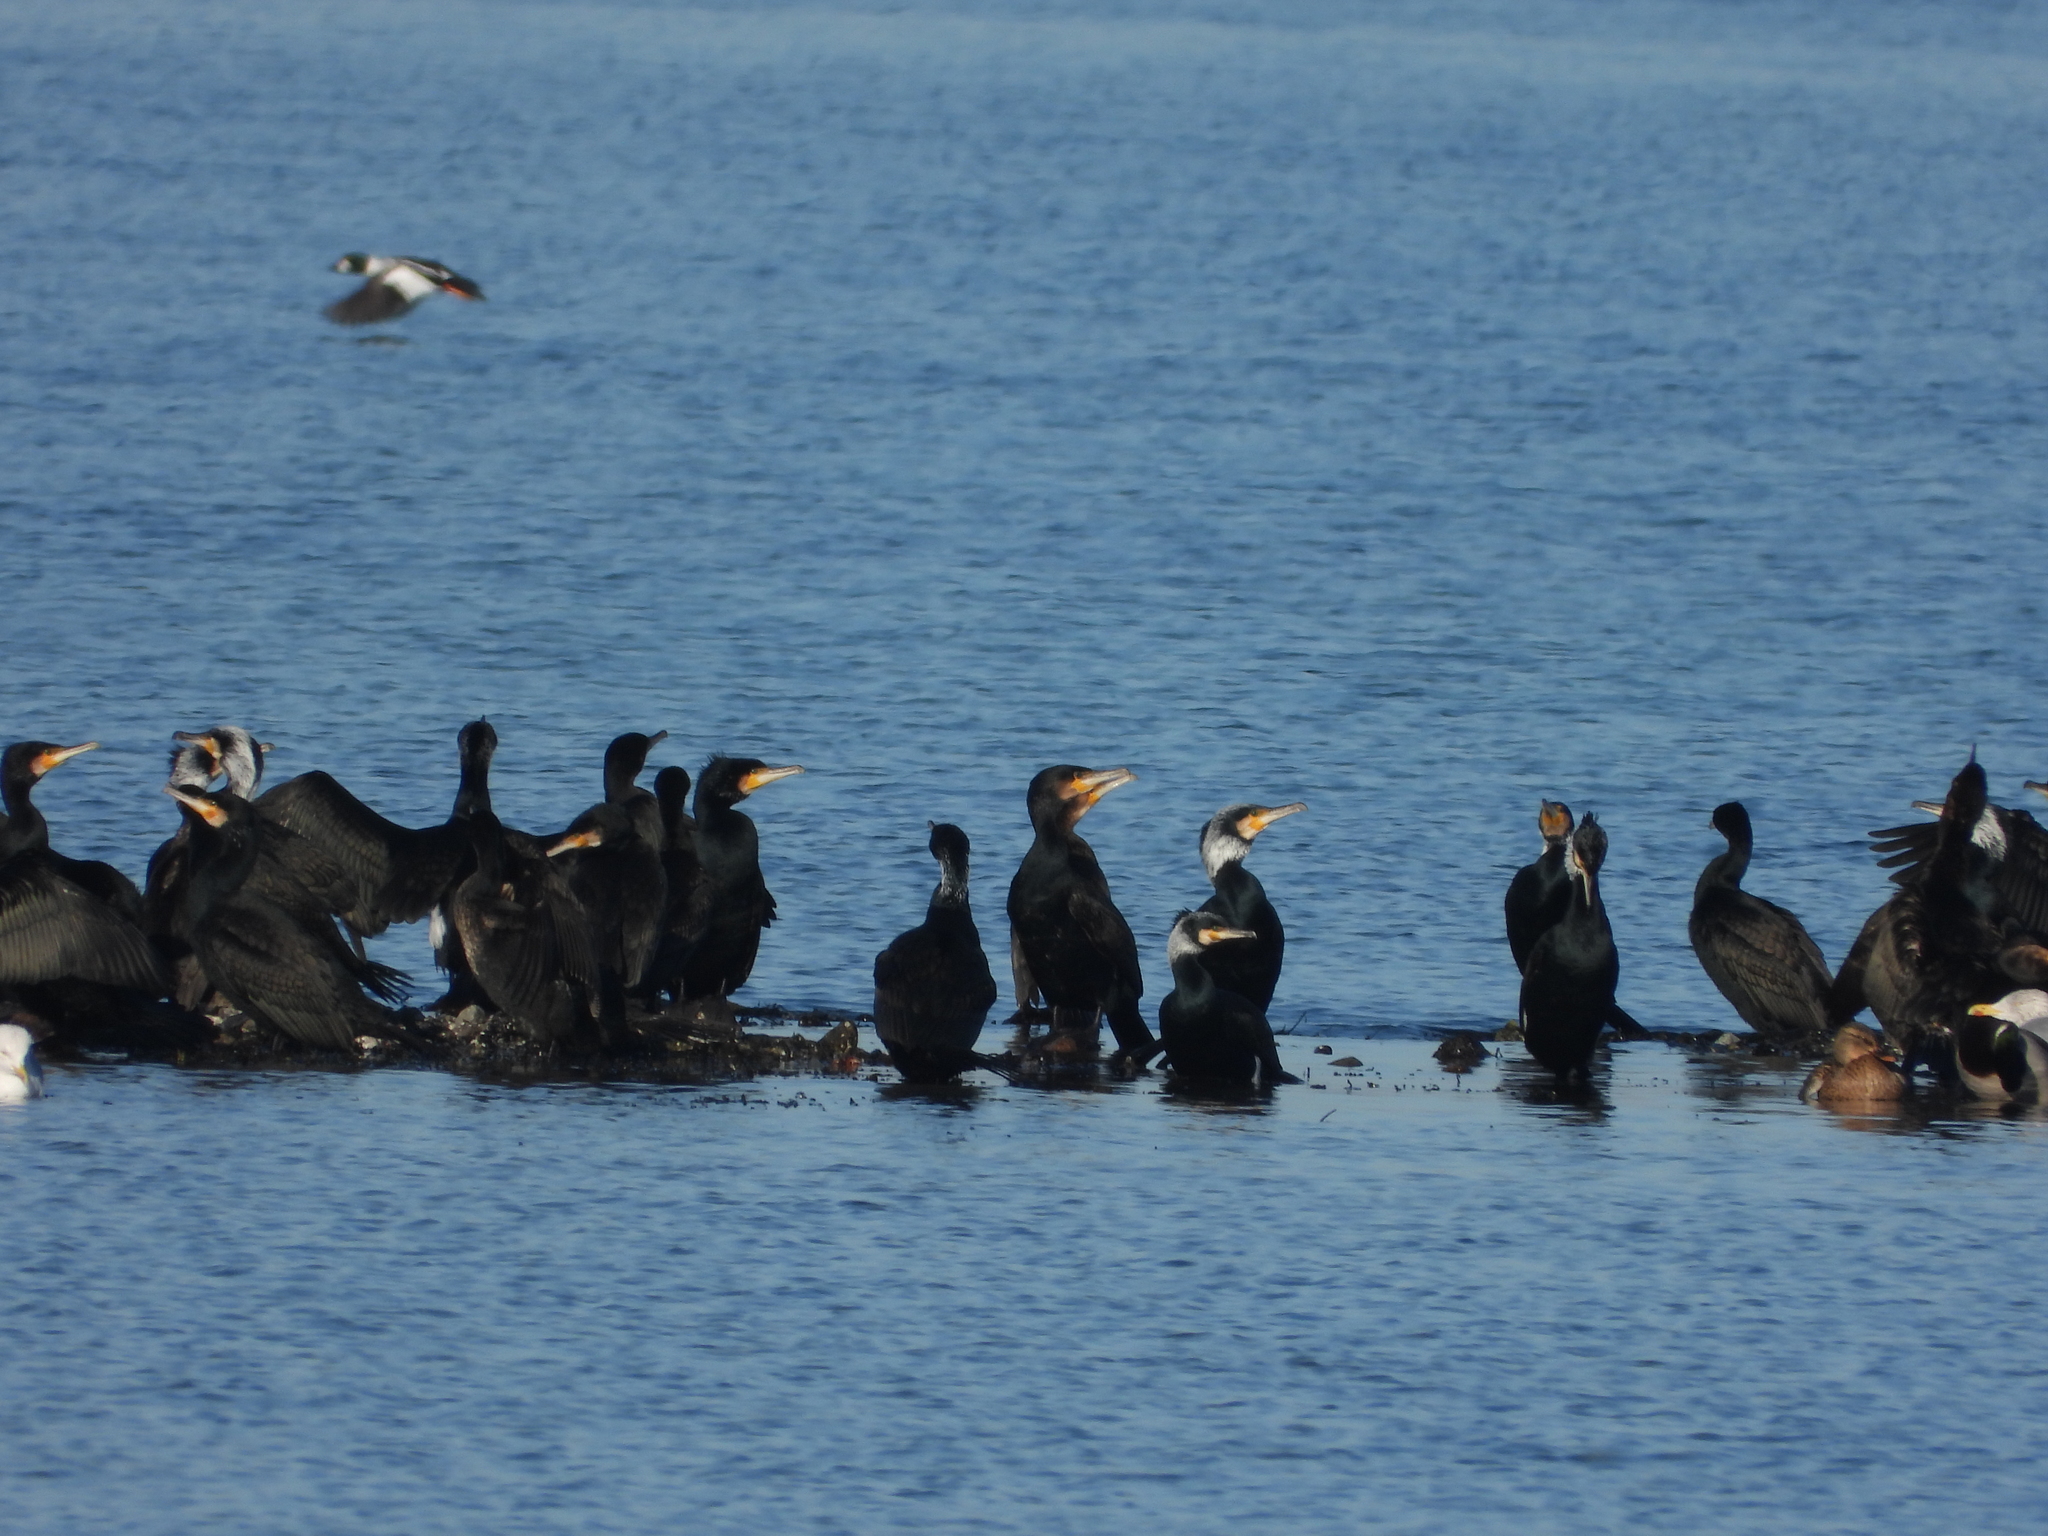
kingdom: Animalia
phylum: Chordata
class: Aves
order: Suliformes
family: Phalacrocoracidae
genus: Phalacrocorax
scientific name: Phalacrocorax carbo
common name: Great cormorant
